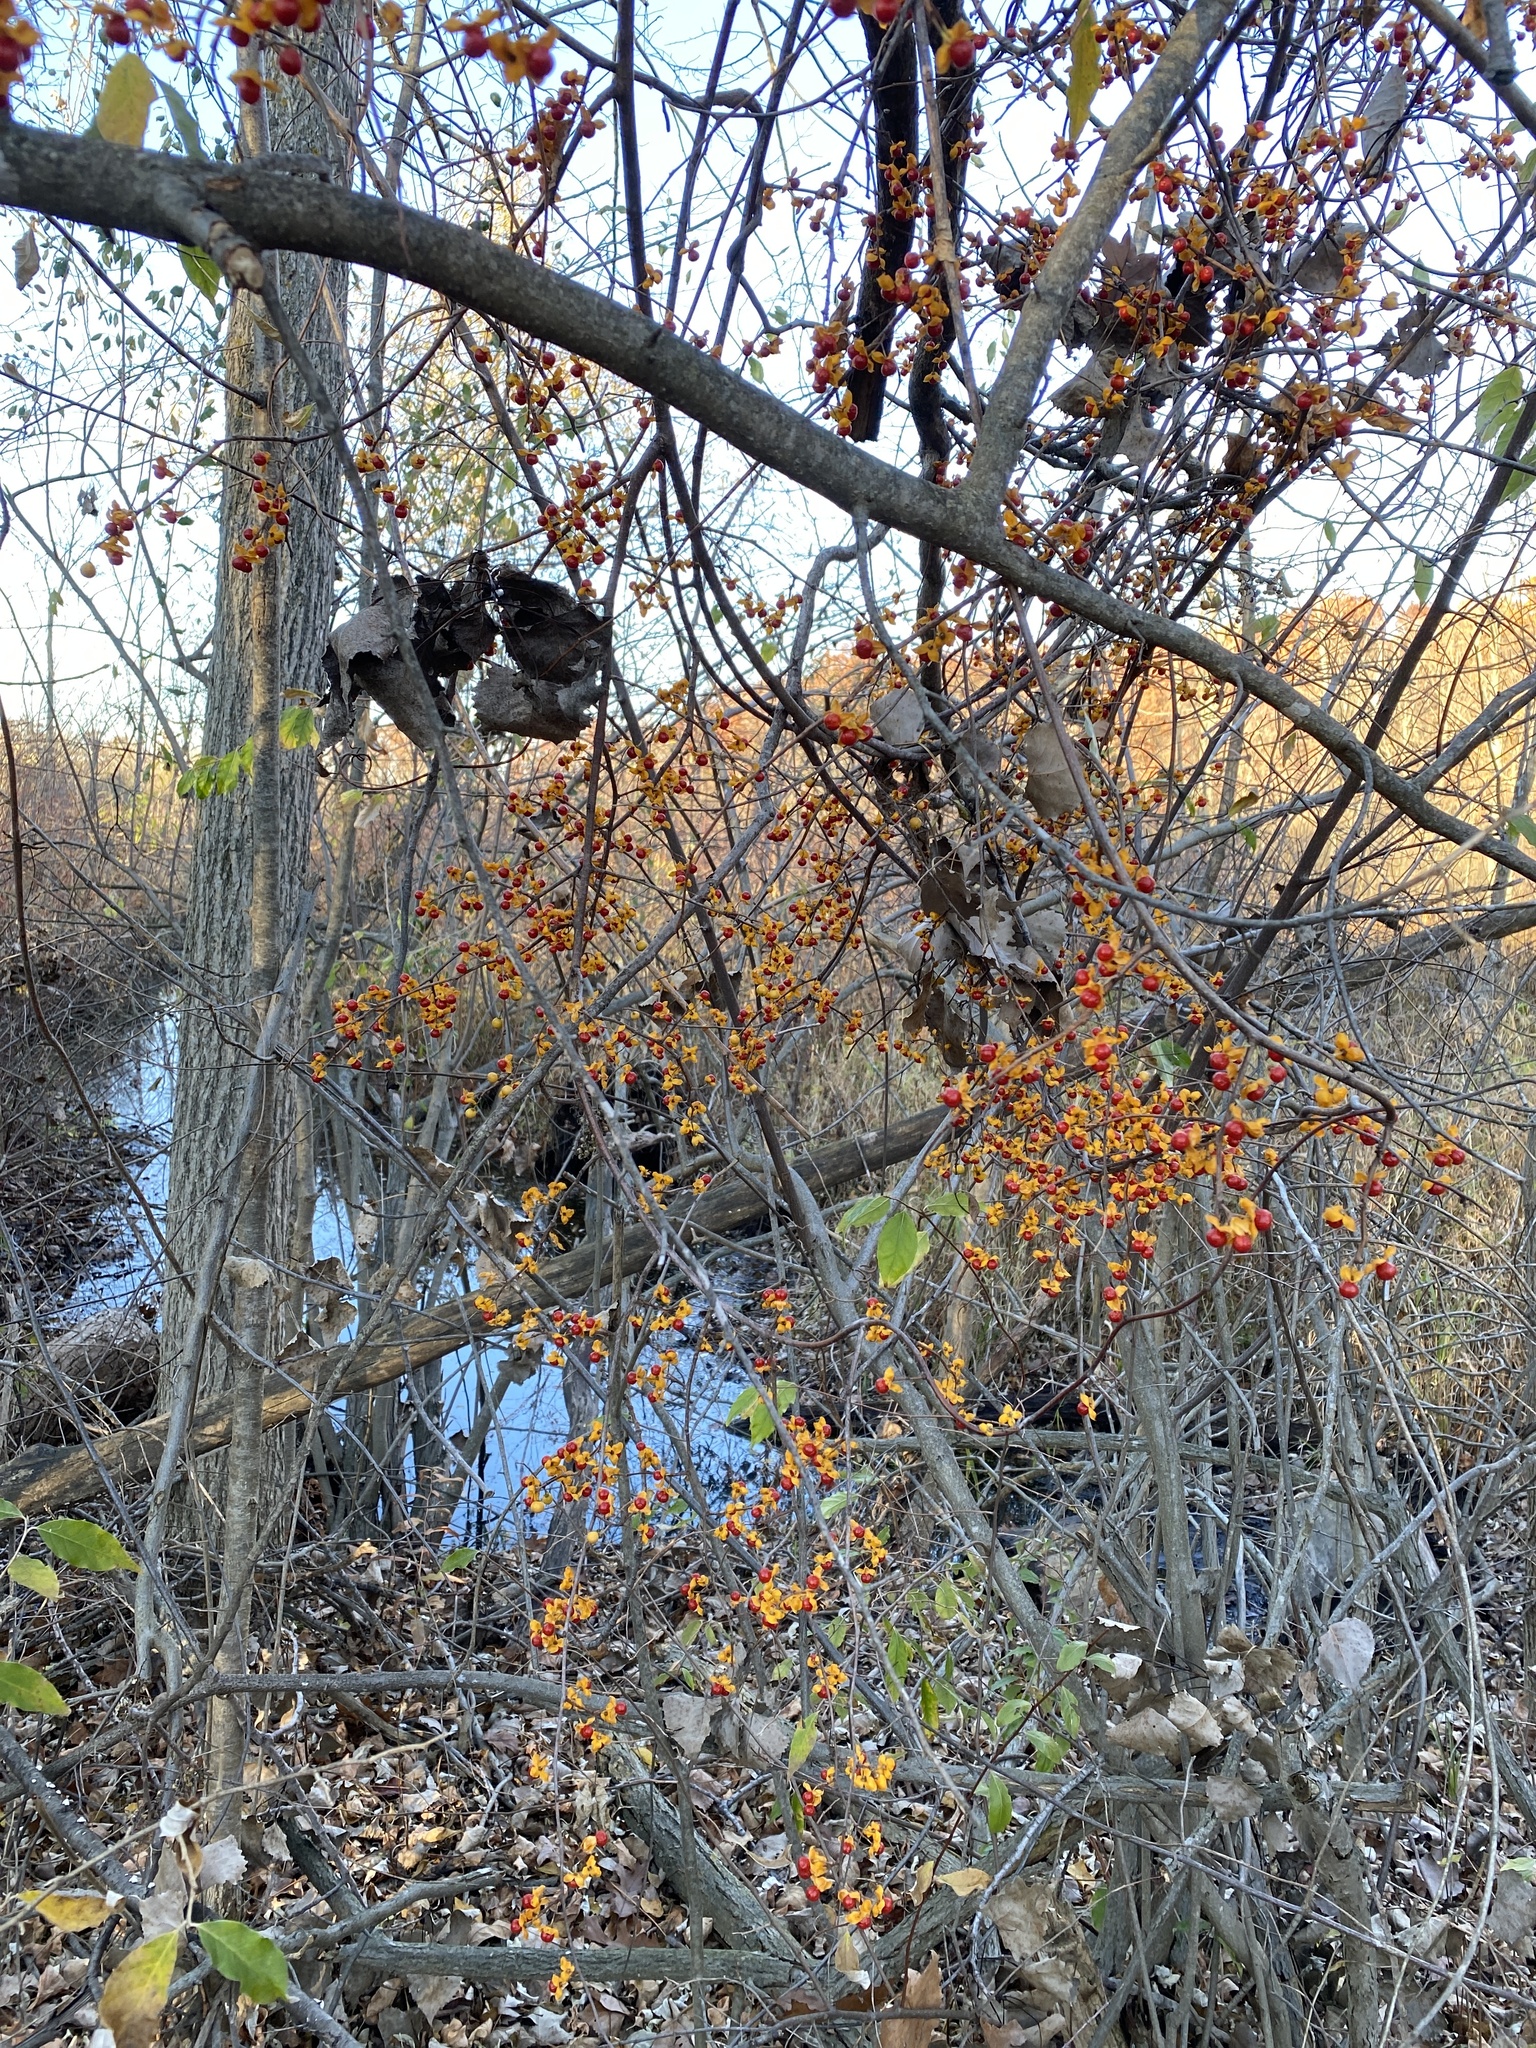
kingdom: Plantae
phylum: Tracheophyta
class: Magnoliopsida
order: Celastrales
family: Celastraceae
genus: Celastrus
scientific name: Celastrus orbiculatus
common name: Oriental bittersweet
